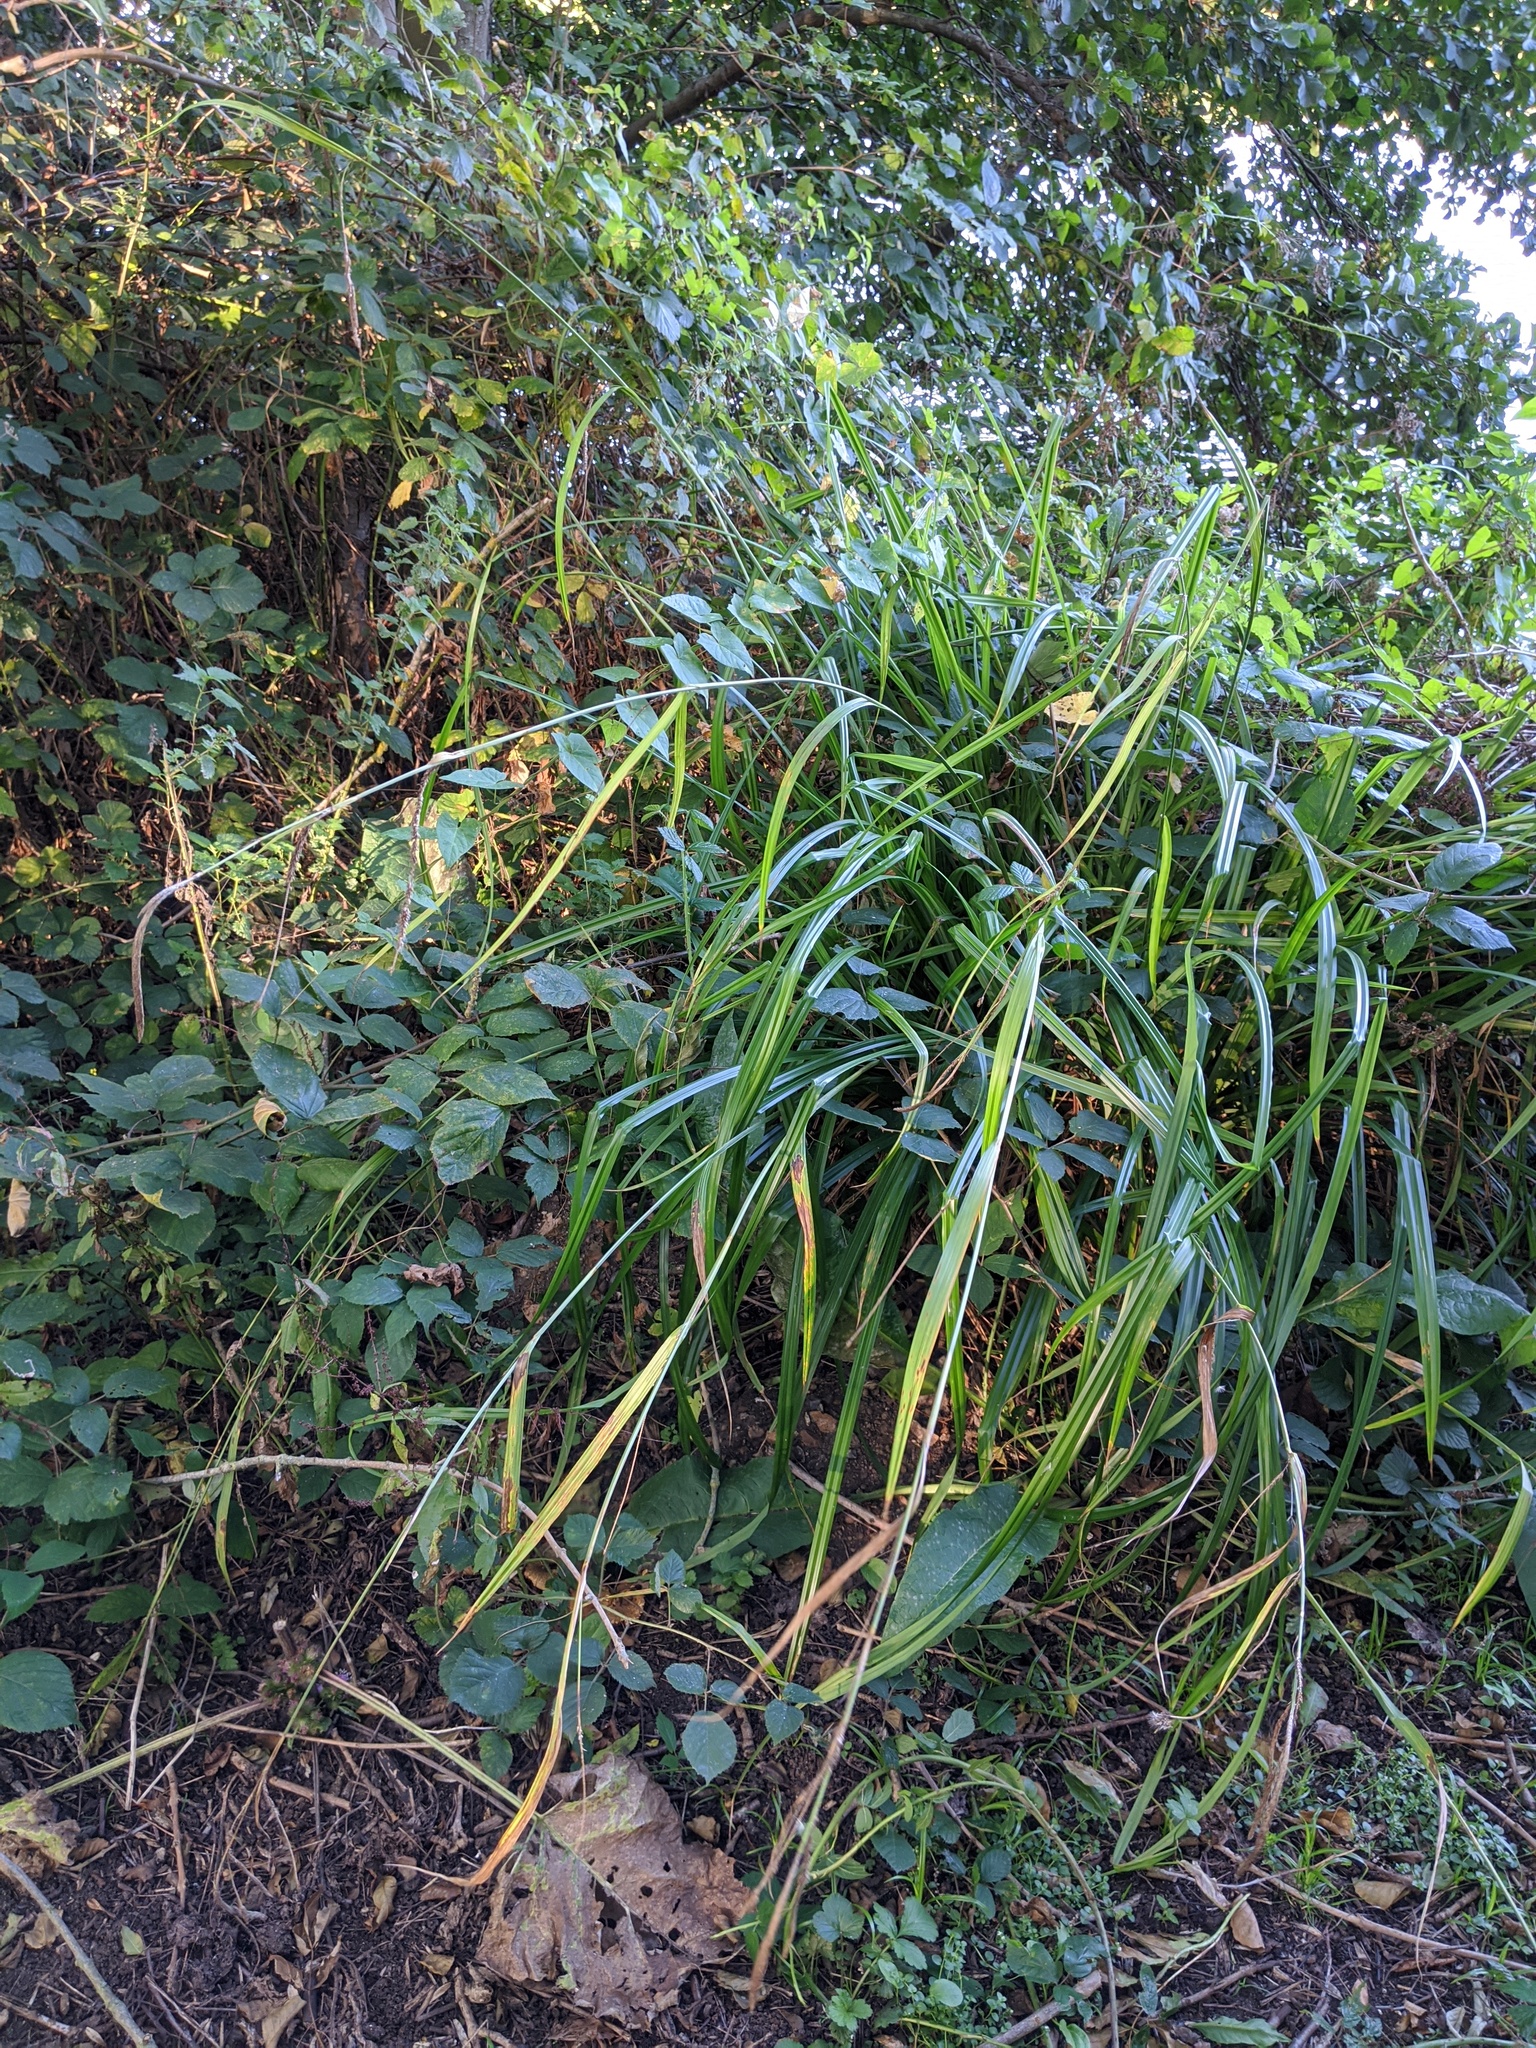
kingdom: Plantae
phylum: Tracheophyta
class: Liliopsida
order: Poales
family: Cyperaceae
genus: Carex
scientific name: Carex pendula
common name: Pendulous sedge
